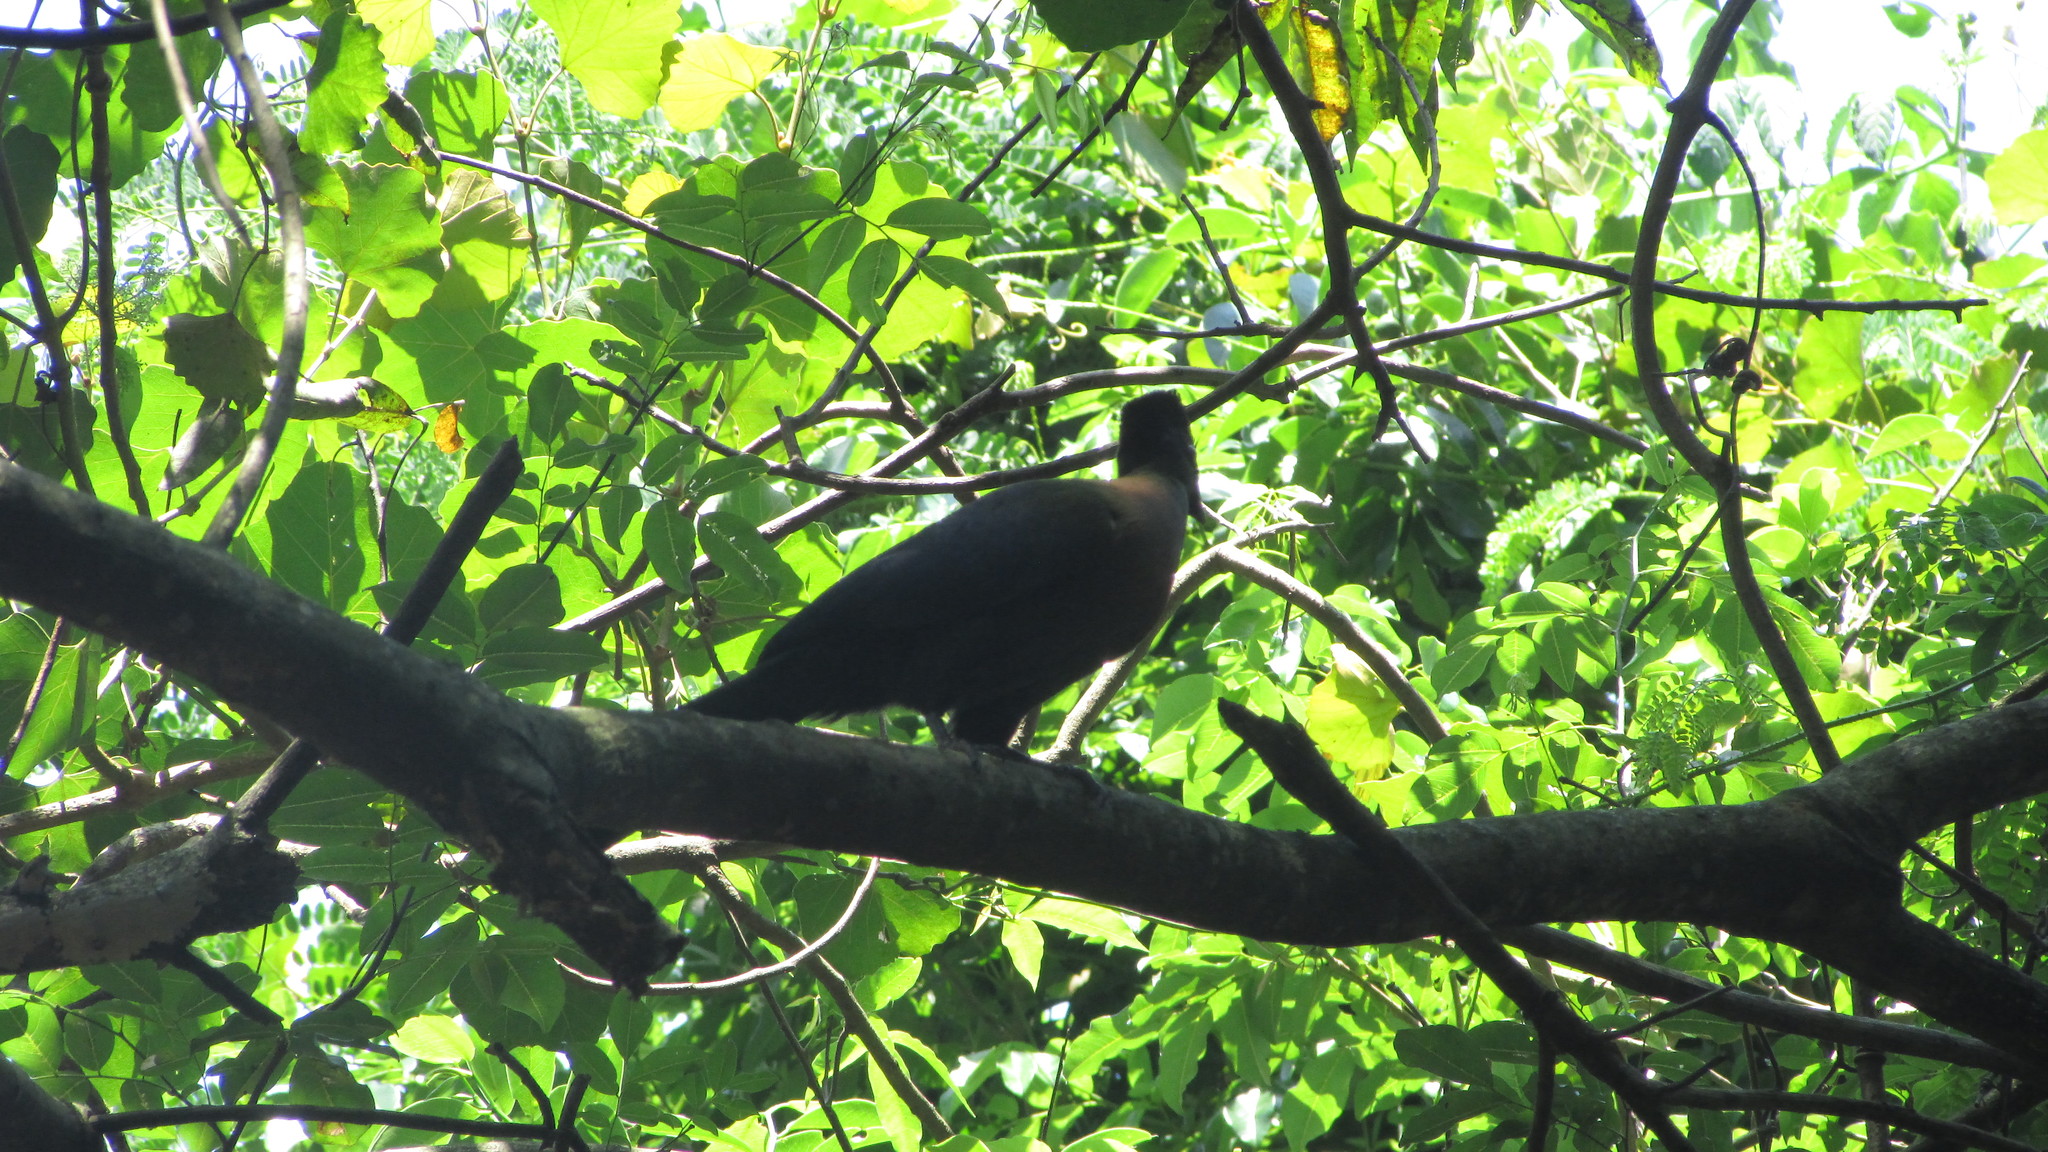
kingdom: Animalia
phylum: Chordata
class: Aves
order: Musophagiformes
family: Musophagidae
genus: Tauraco
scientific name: Tauraco porphyreolophus
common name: Purple-crested turaco
